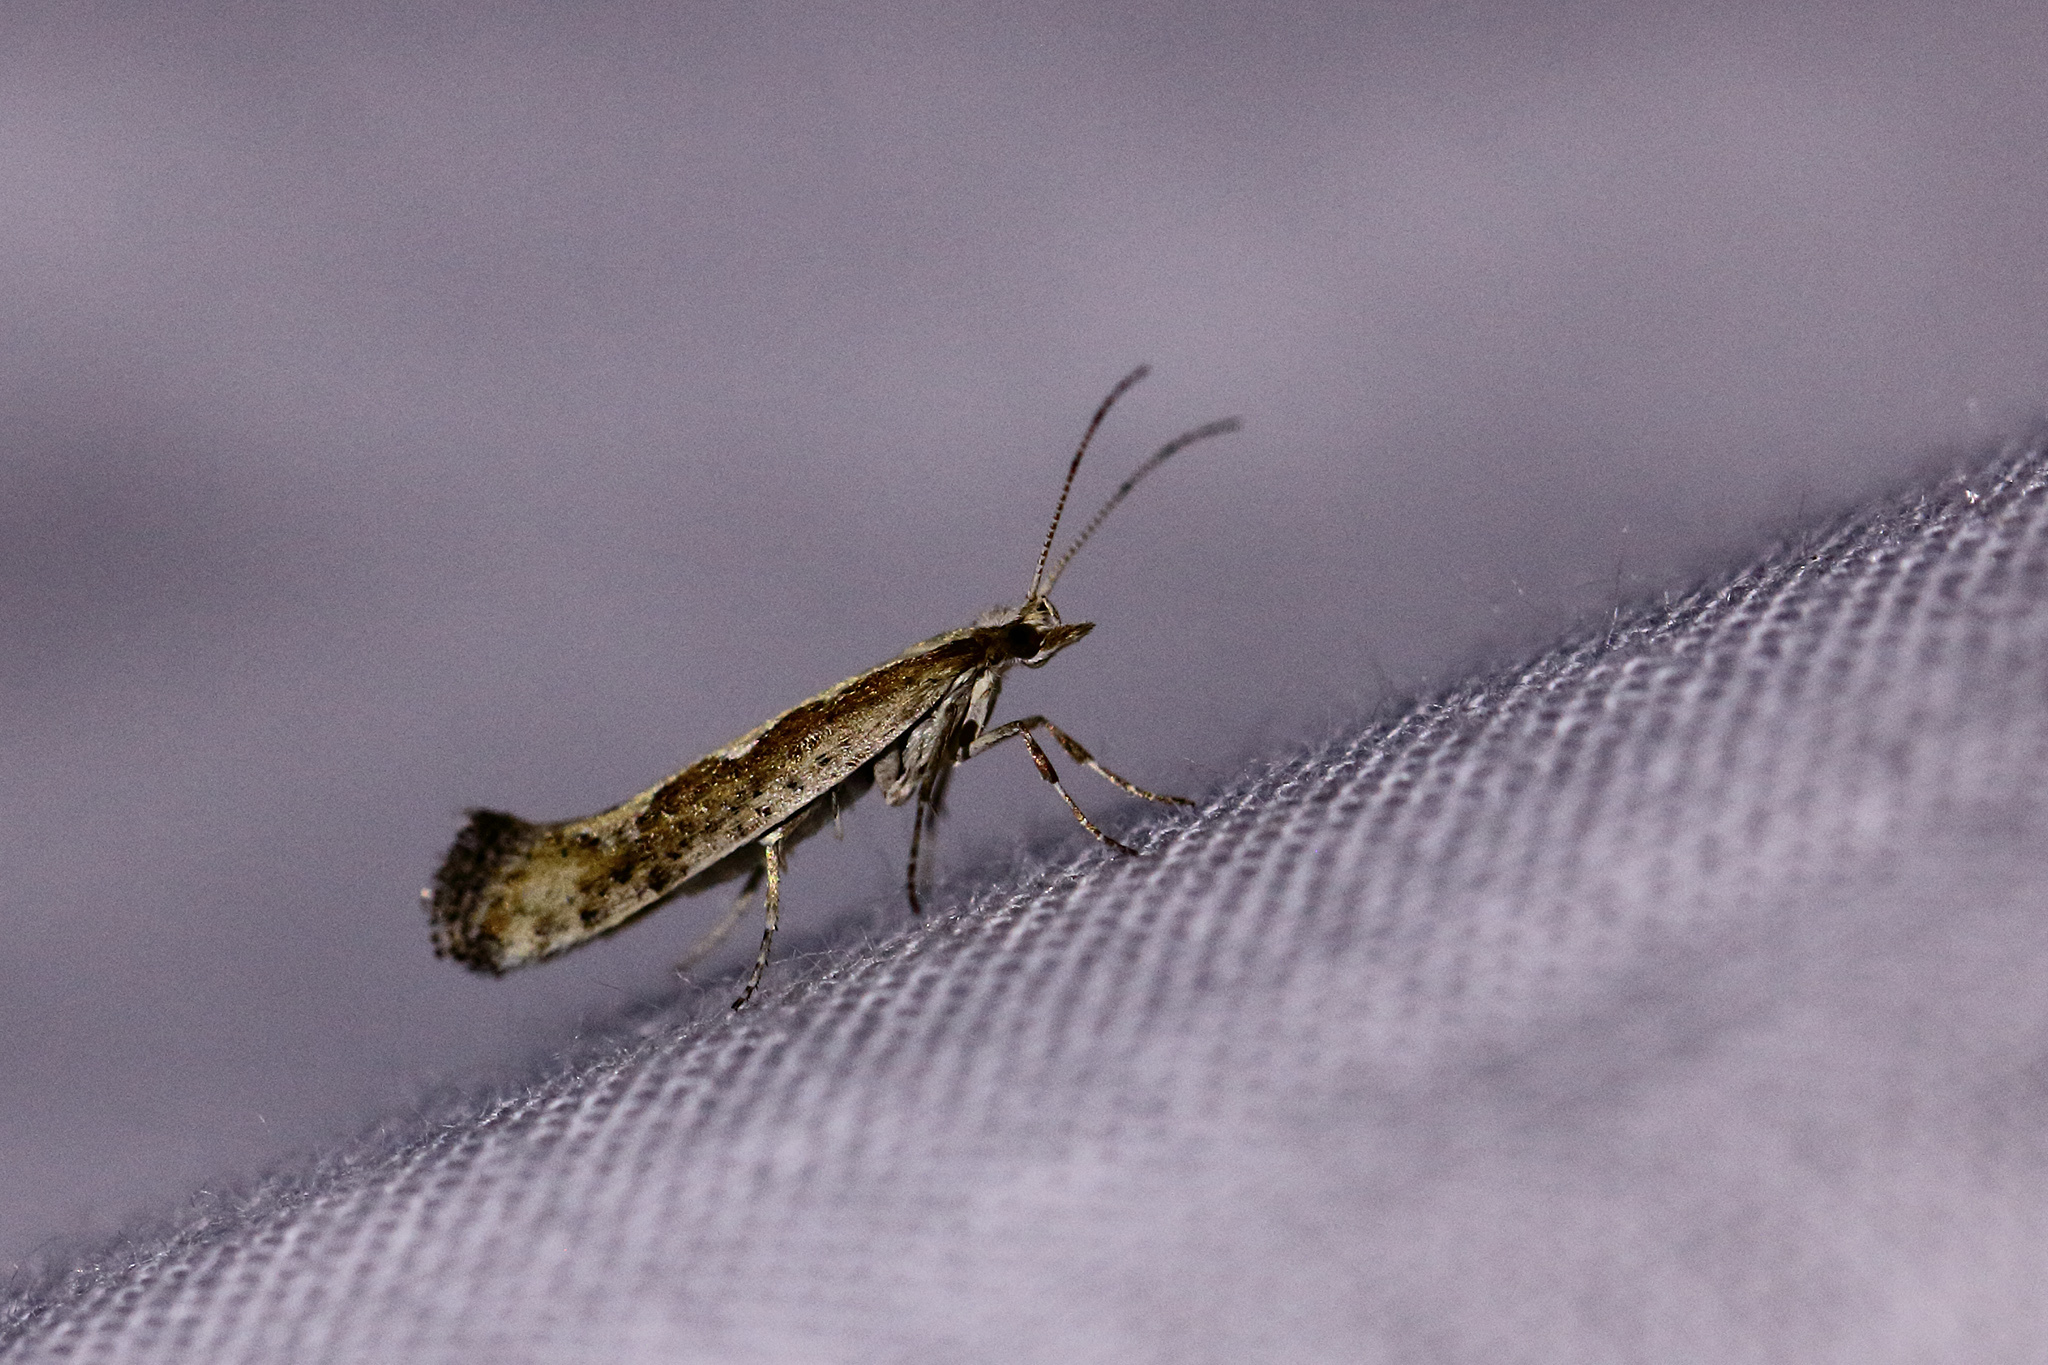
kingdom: Animalia
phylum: Arthropoda
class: Insecta
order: Lepidoptera
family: Plutellidae
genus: Plutella
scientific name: Plutella xylostella
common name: Diamond-back moth
